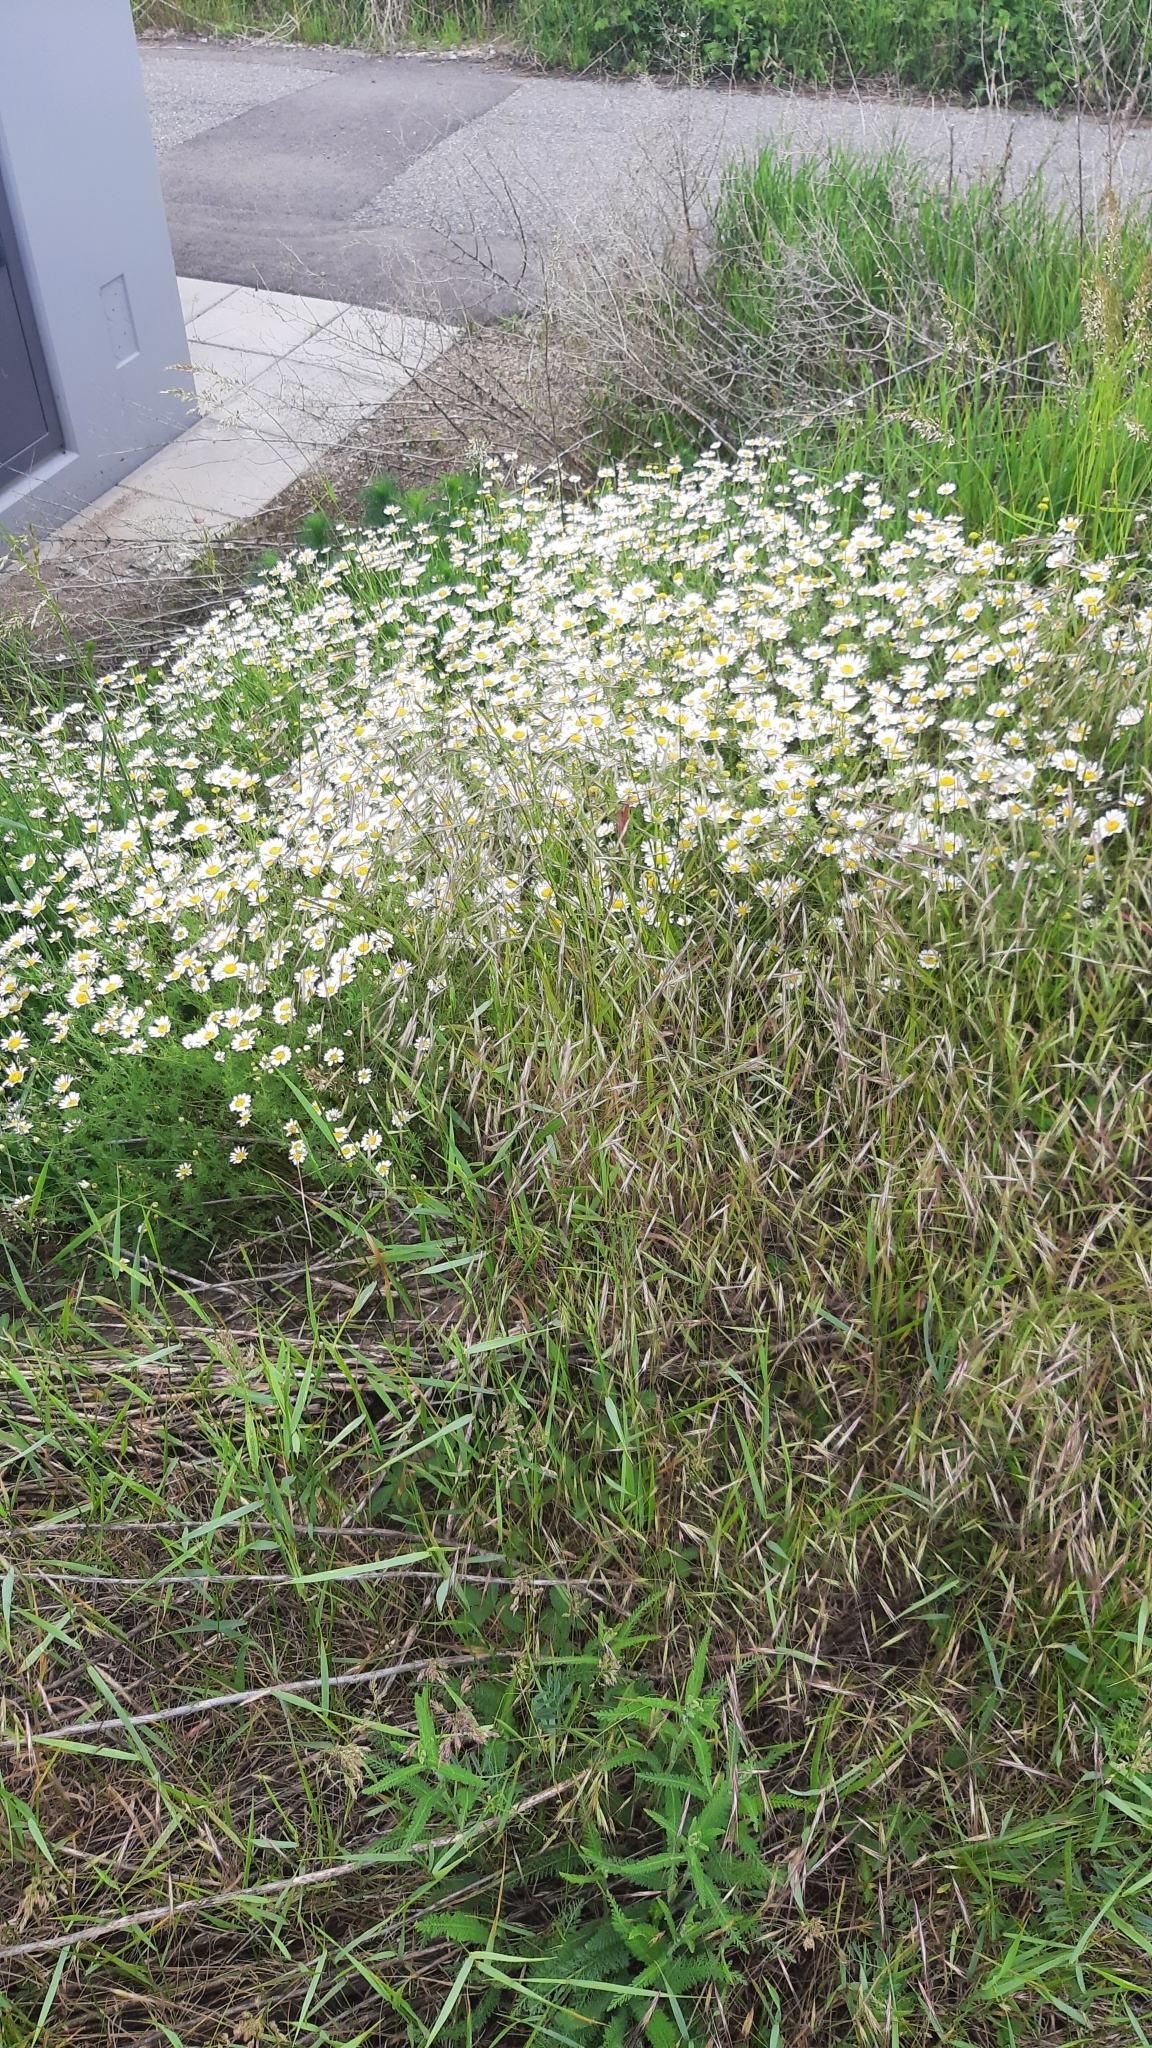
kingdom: Plantae
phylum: Tracheophyta
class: Magnoliopsida
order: Asterales
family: Asteraceae
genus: Cota
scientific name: Cota austriaca
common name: Austrian chamomile
